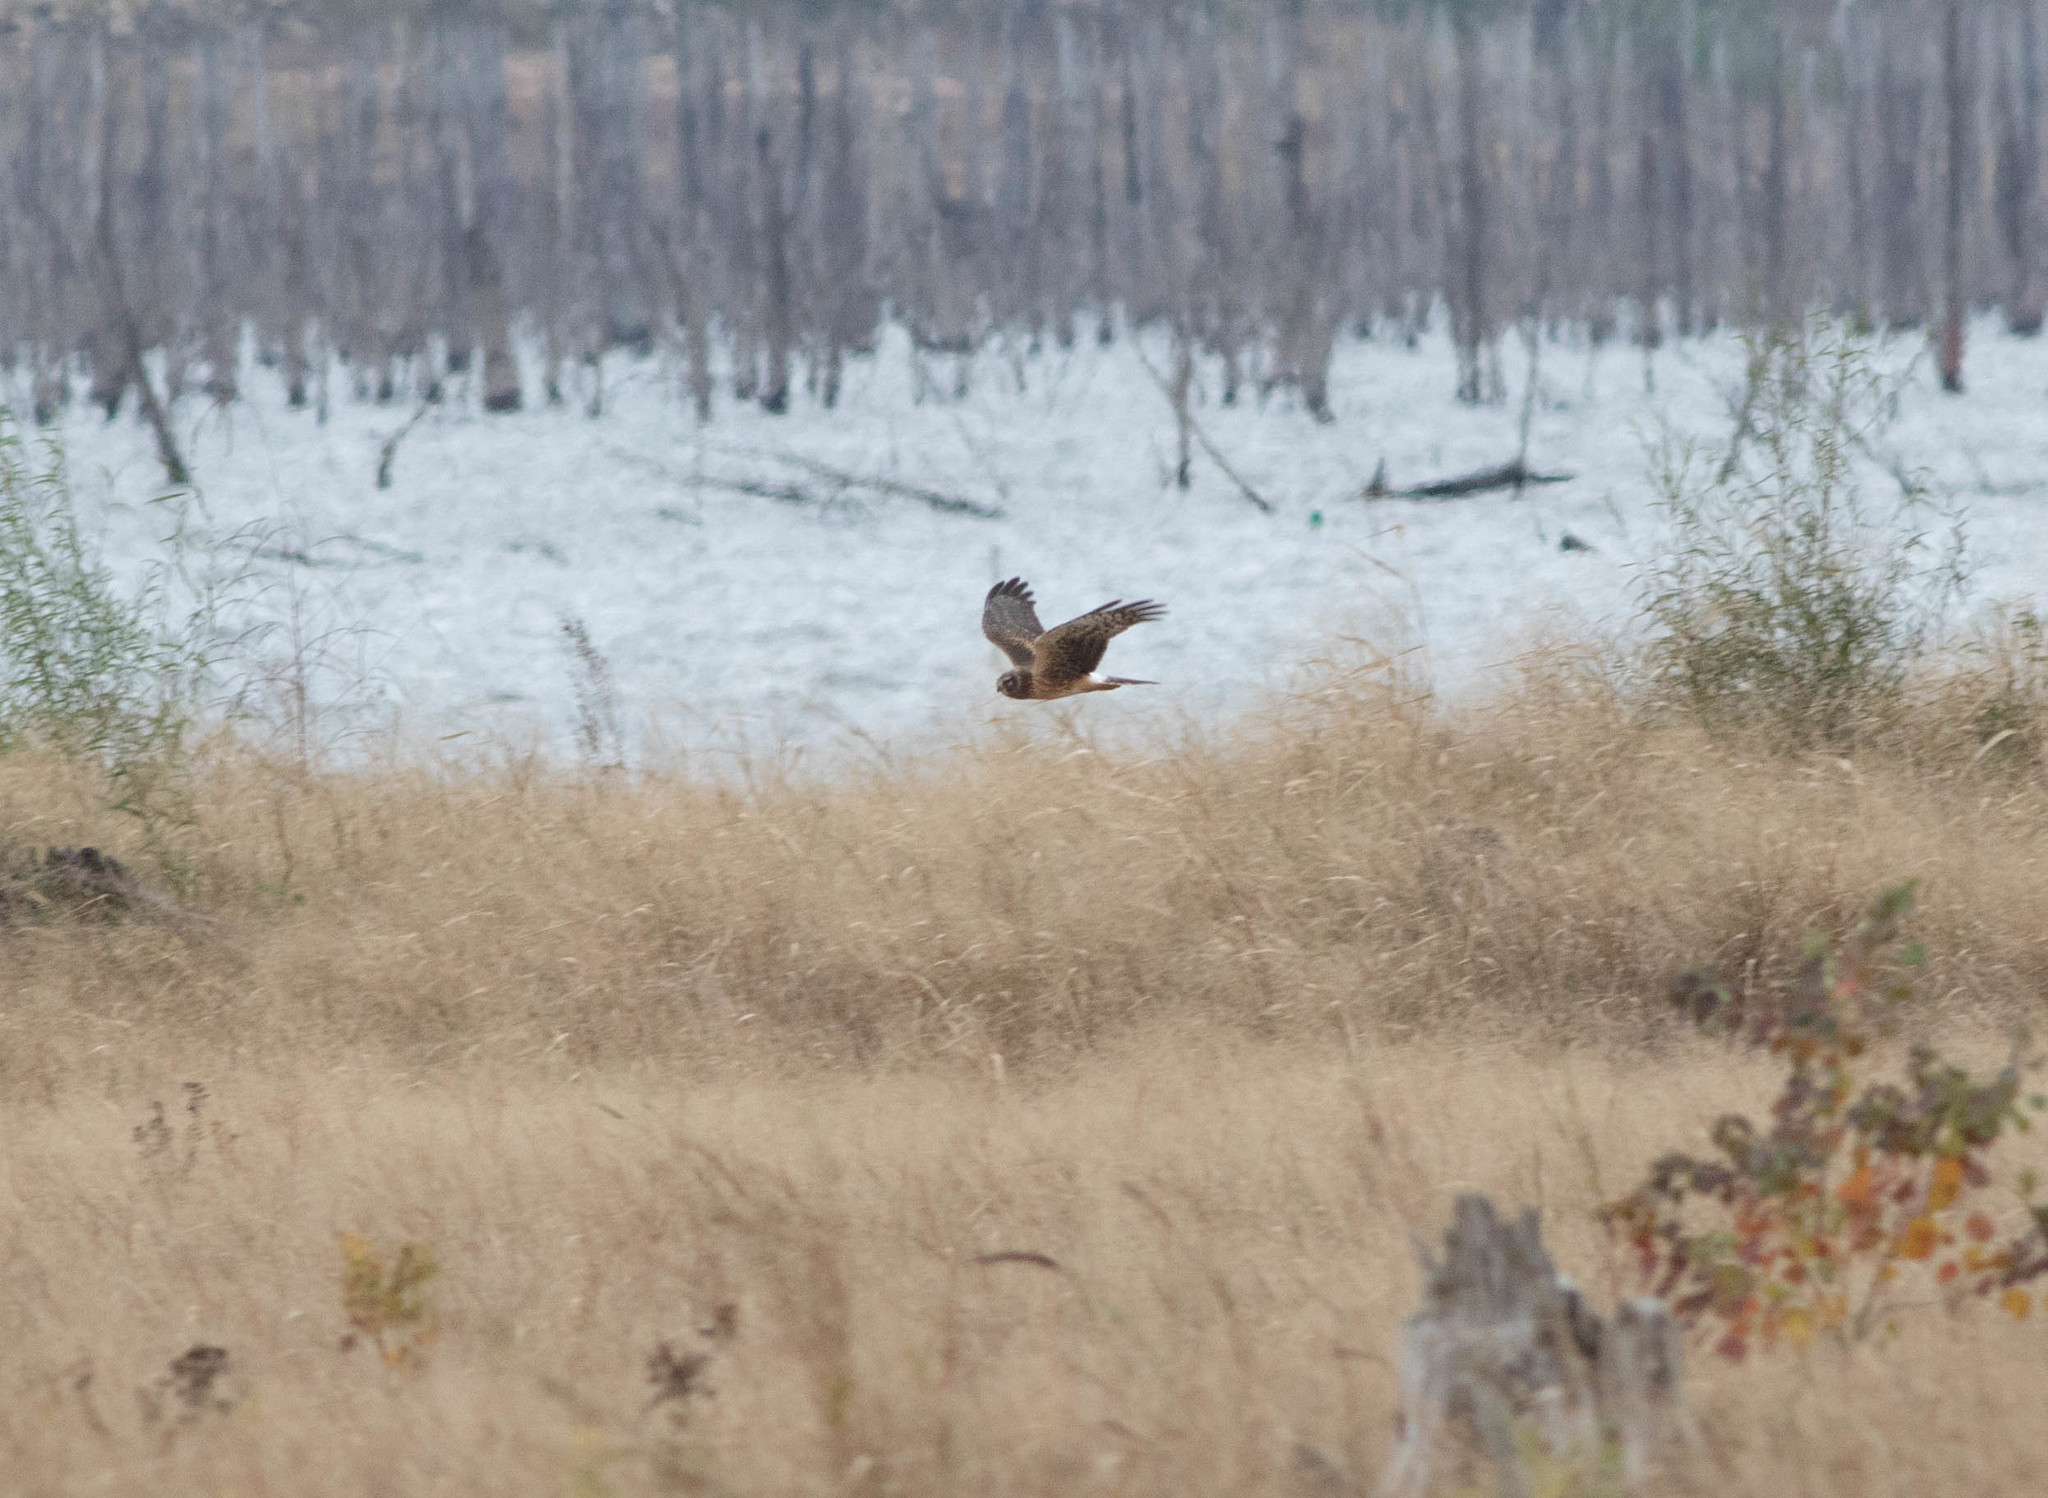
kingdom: Animalia
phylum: Chordata
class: Aves
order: Accipitriformes
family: Accipitridae
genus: Circus
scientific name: Circus cyaneus
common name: Hen harrier
